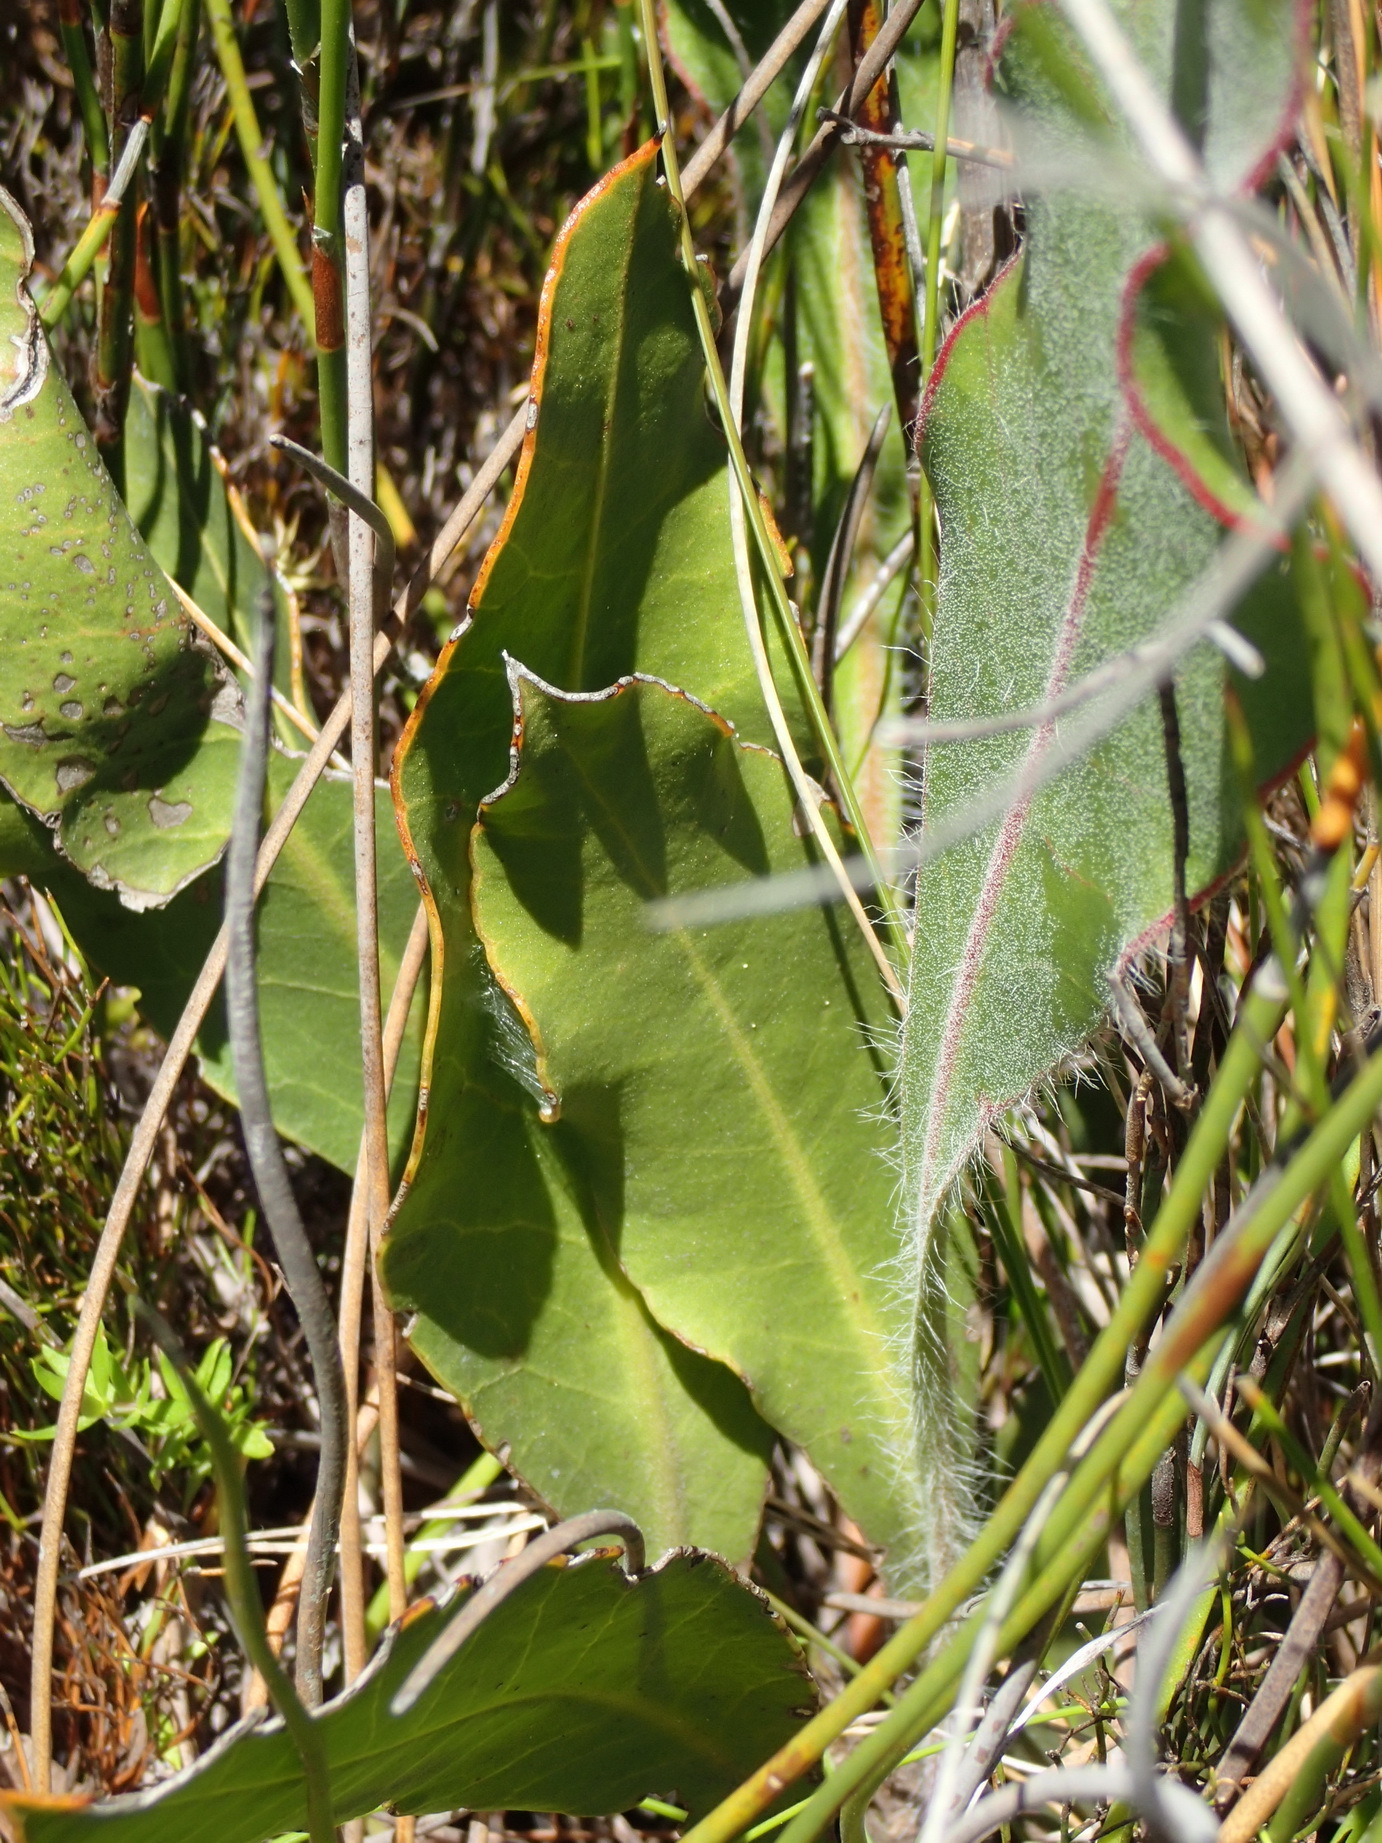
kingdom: Plantae
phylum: Tracheophyta
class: Magnoliopsida
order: Proteales
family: Proteaceae
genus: Protea
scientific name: Protea scolopendriifolia
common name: Harts-tongue-fern sugarbush
